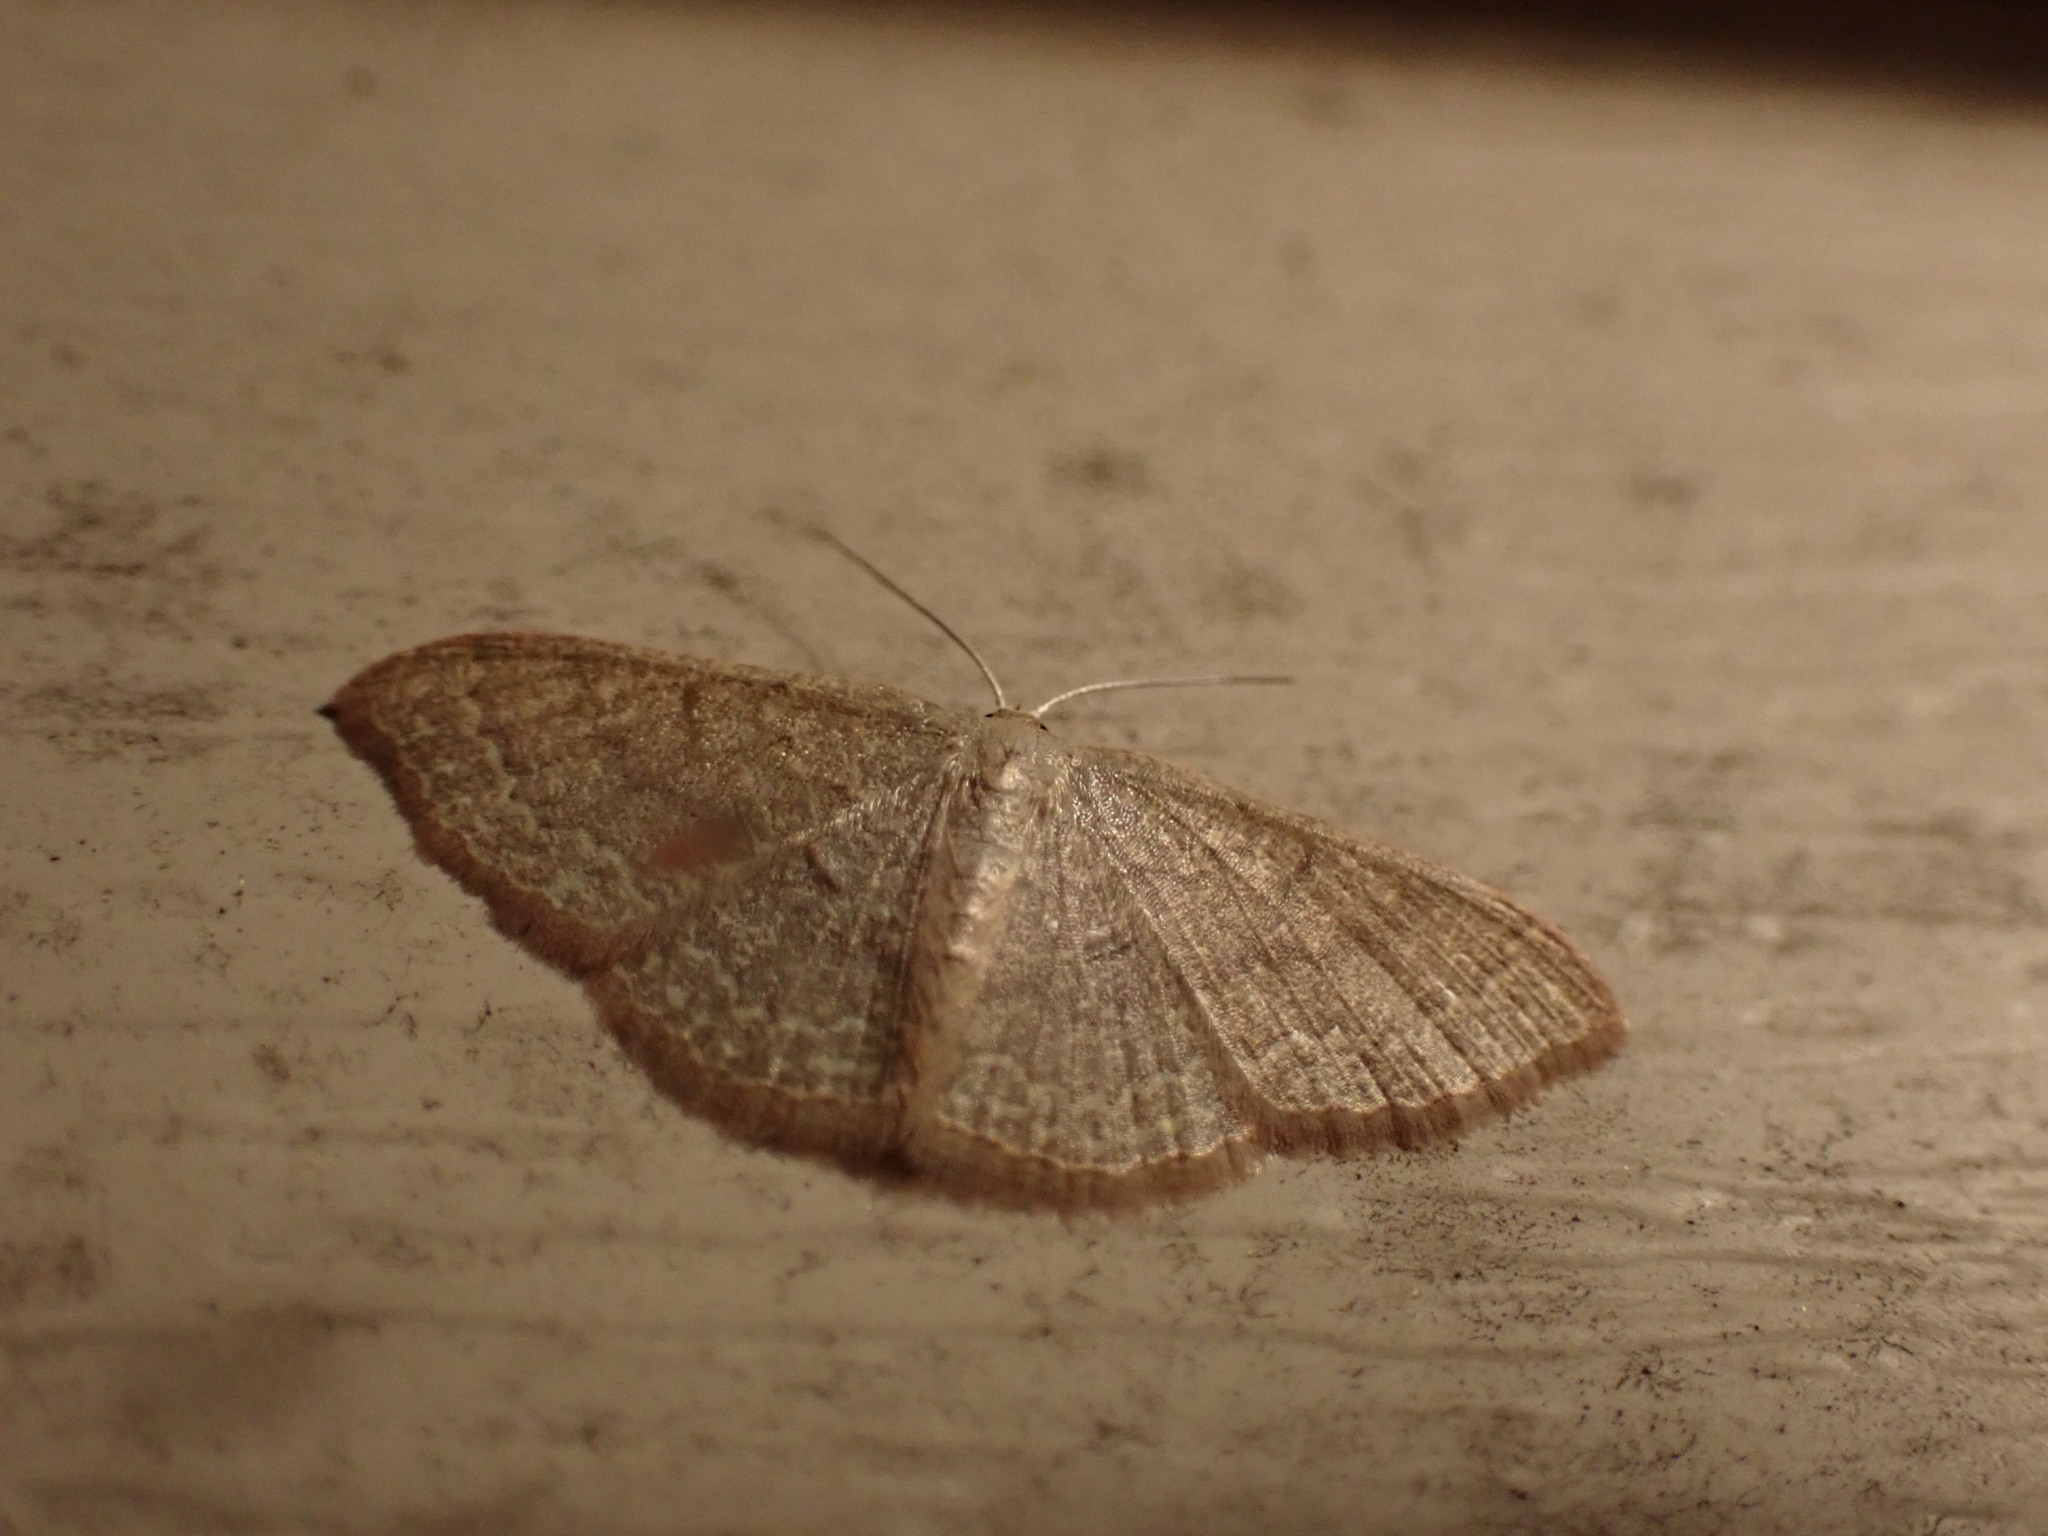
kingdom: Animalia
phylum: Arthropoda
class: Insecta
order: Lepidoptera
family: Geometridae
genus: Pleuroprucha
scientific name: Pleuroprucha insulsaria
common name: Common tan wave
